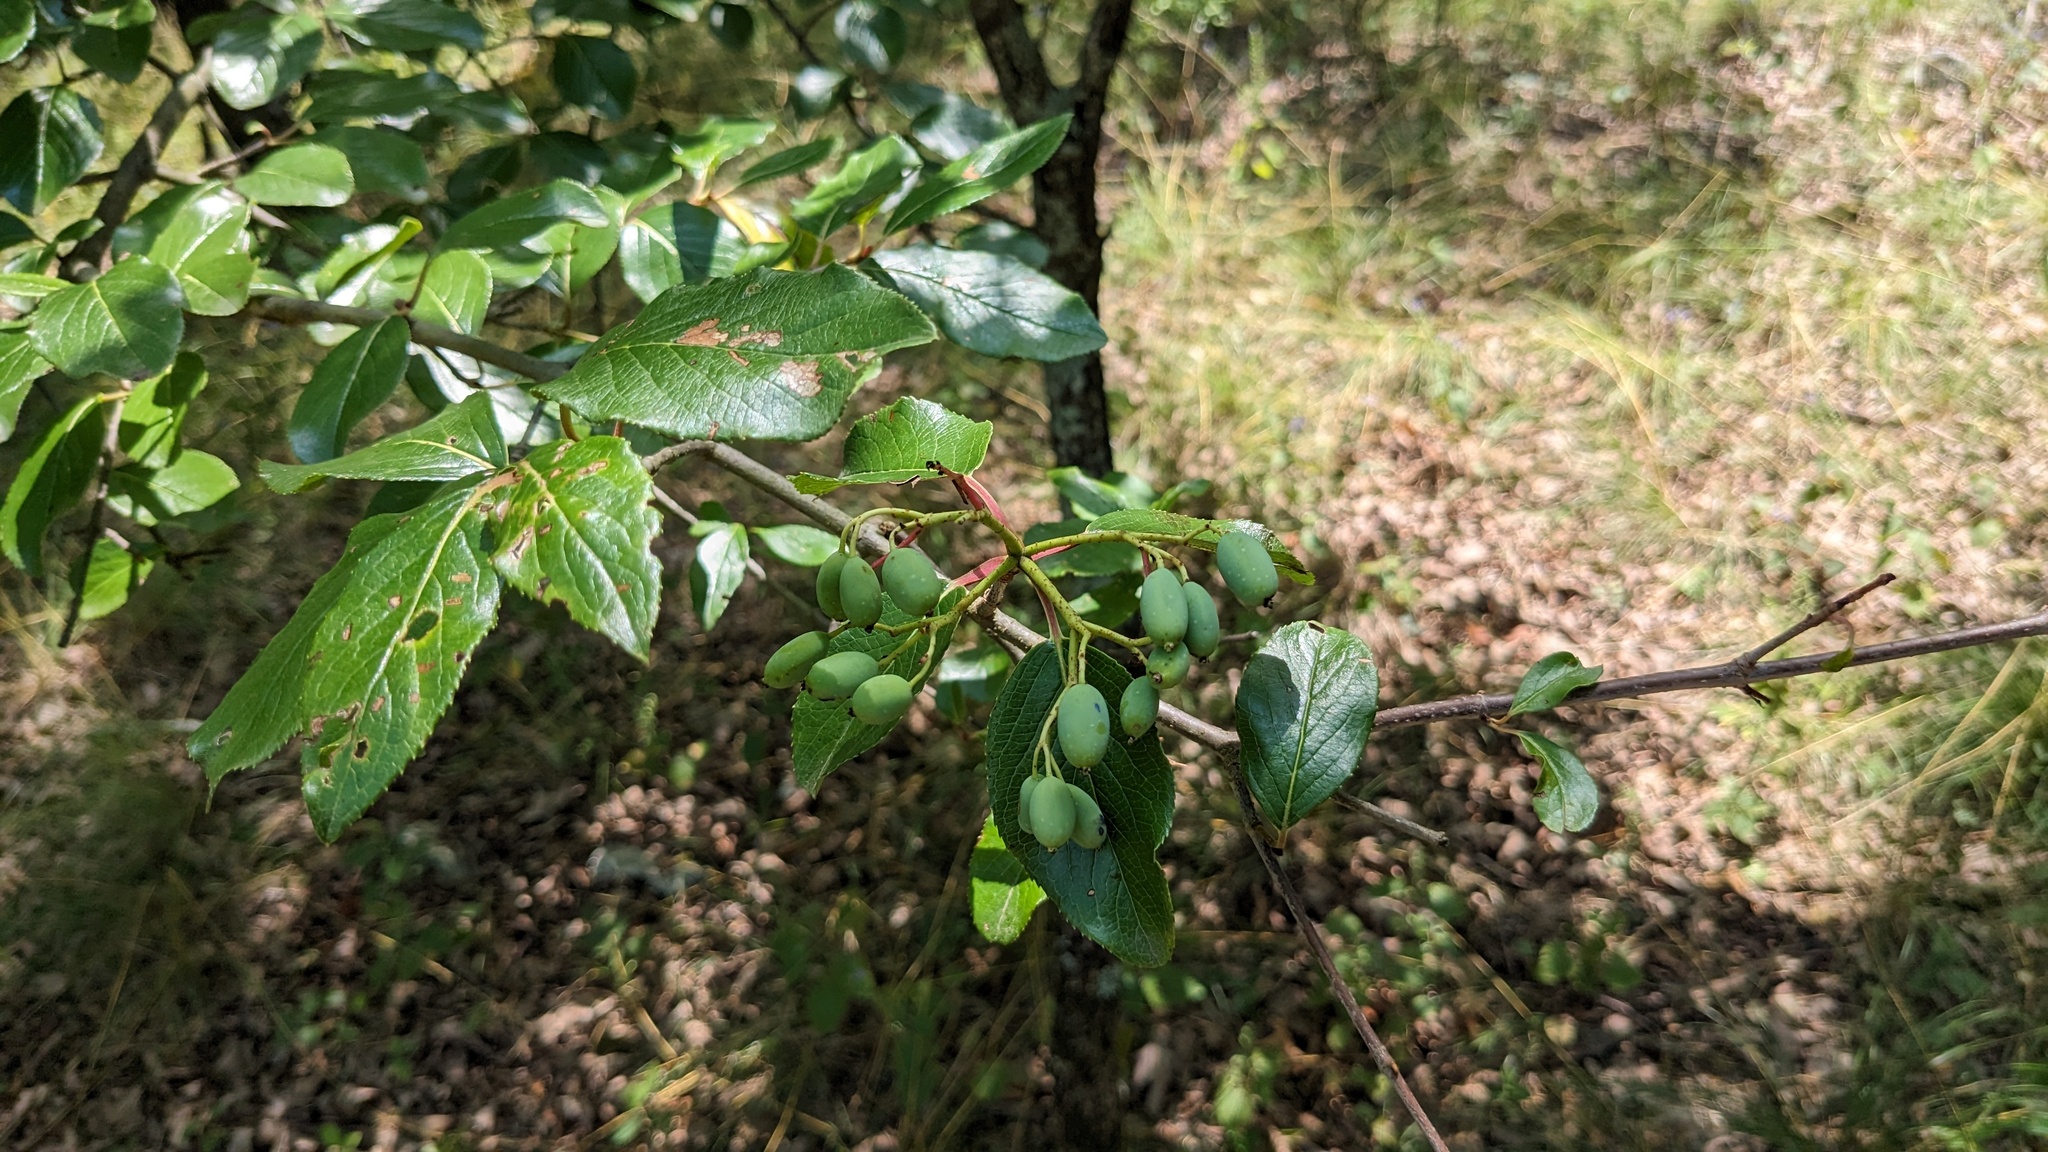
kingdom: Plantae
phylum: Tracheophyta
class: Magnoliopsida
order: Dipsacales
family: Viburnaceae
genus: Viburnum
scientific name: Viburnum rufidulum
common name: Blue haw
